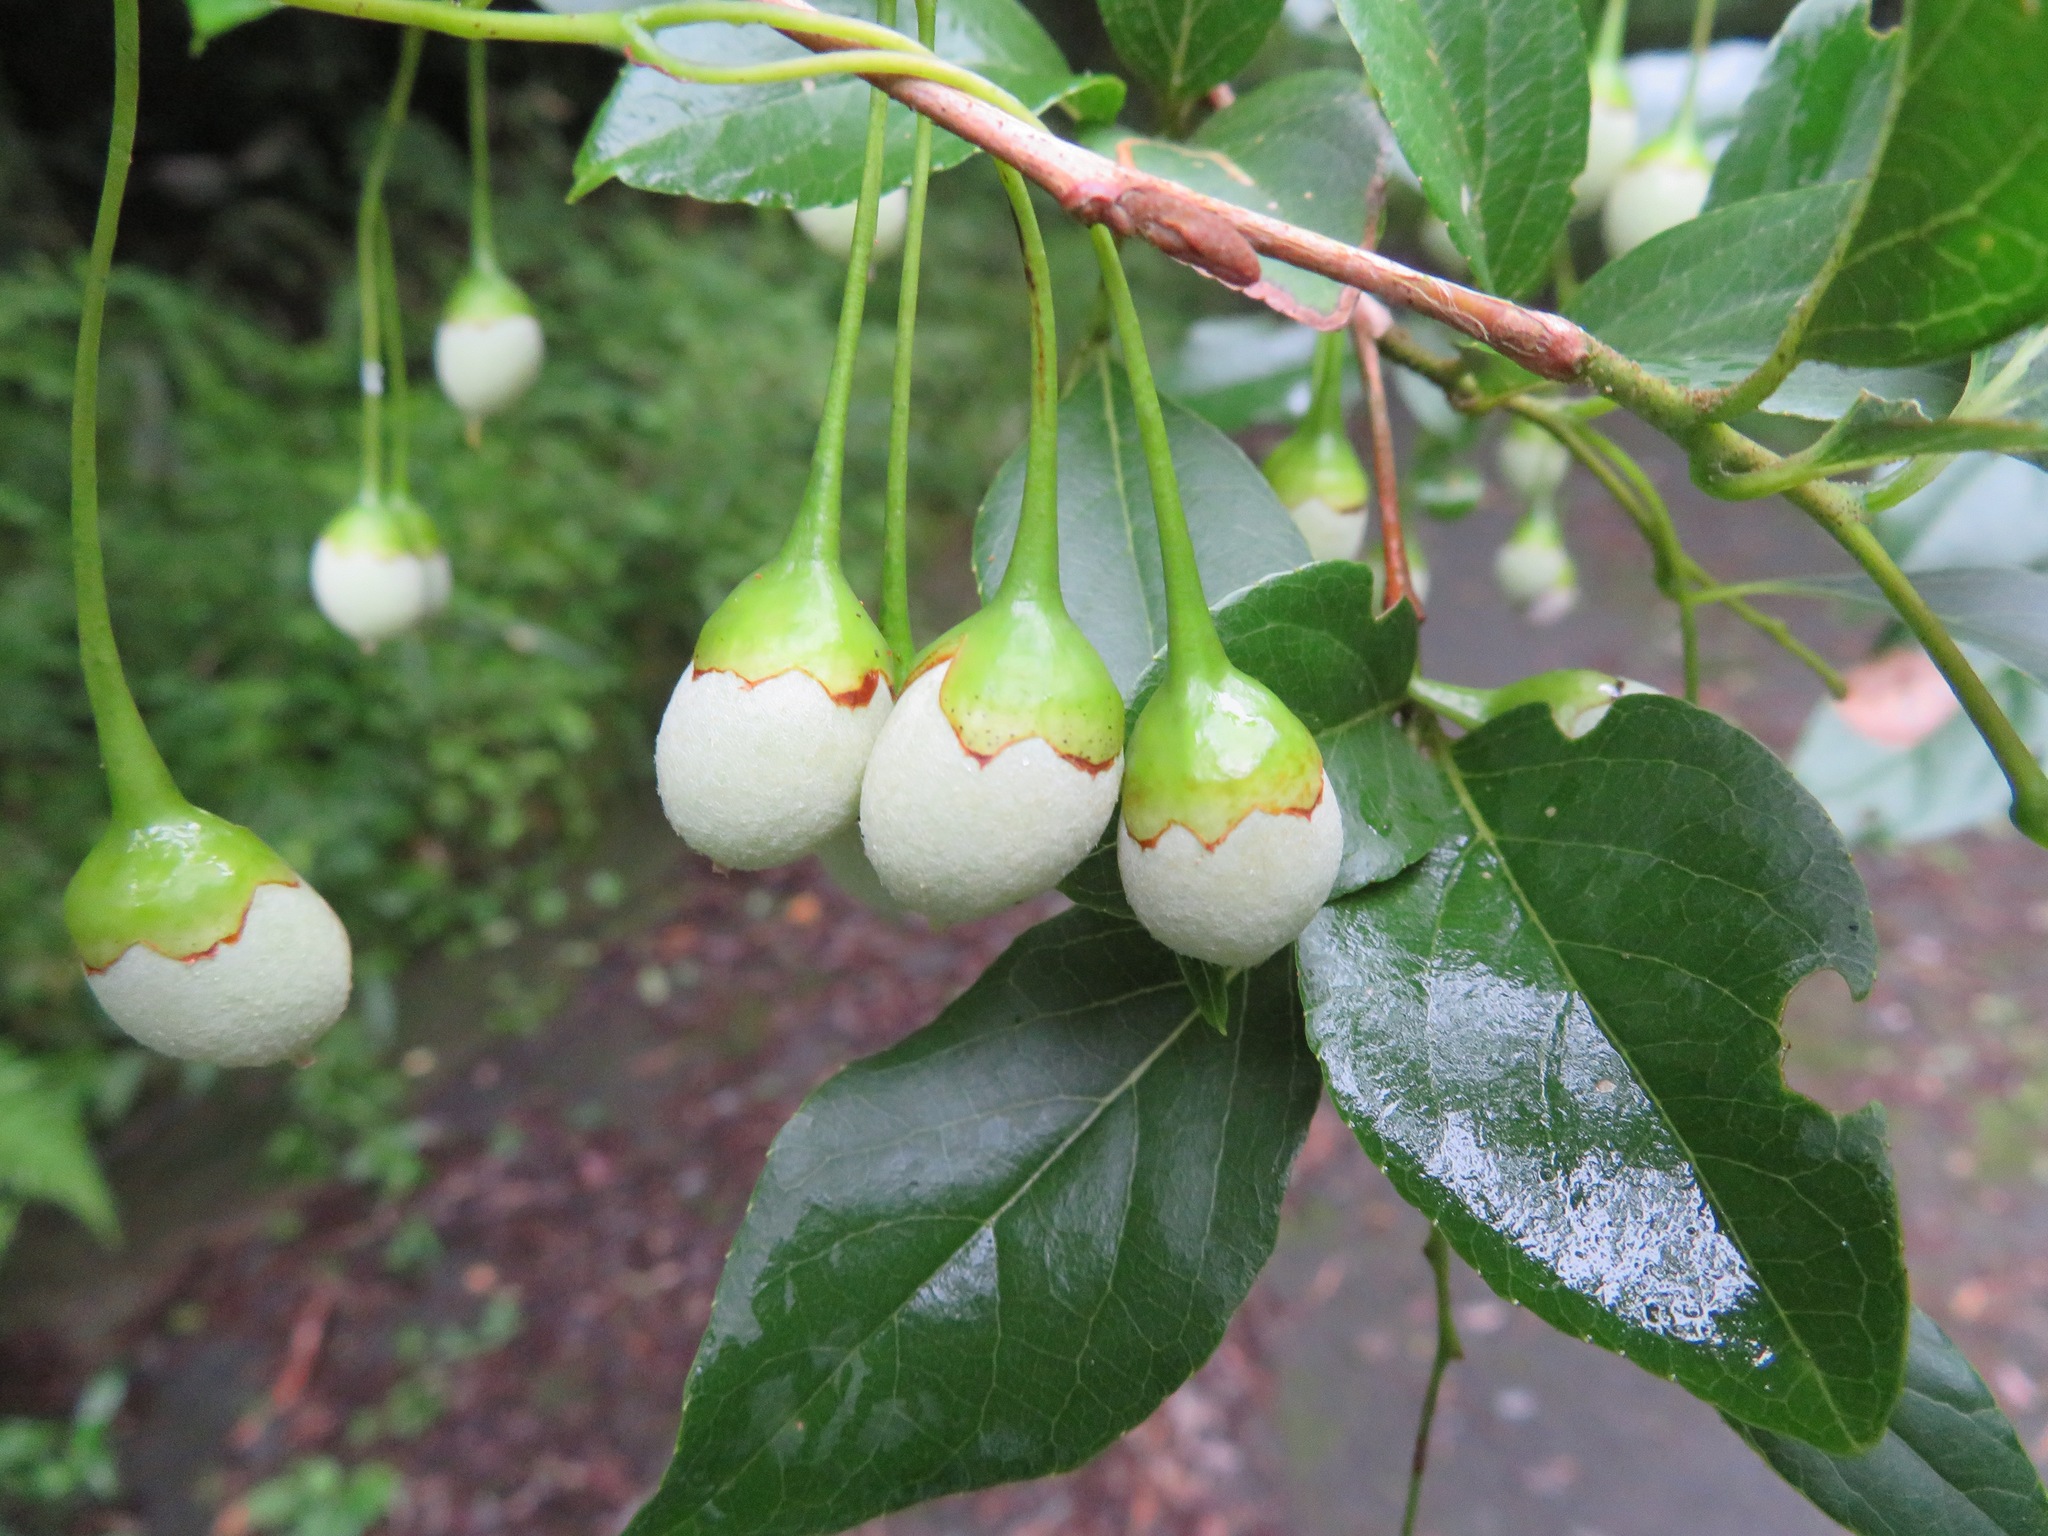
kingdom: Plantae
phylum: Tracheophyta
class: Magnoliopsida
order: Ericales
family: Styracaceae
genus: Styrax
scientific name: Styrax japonicus
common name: Japanese snowbell
